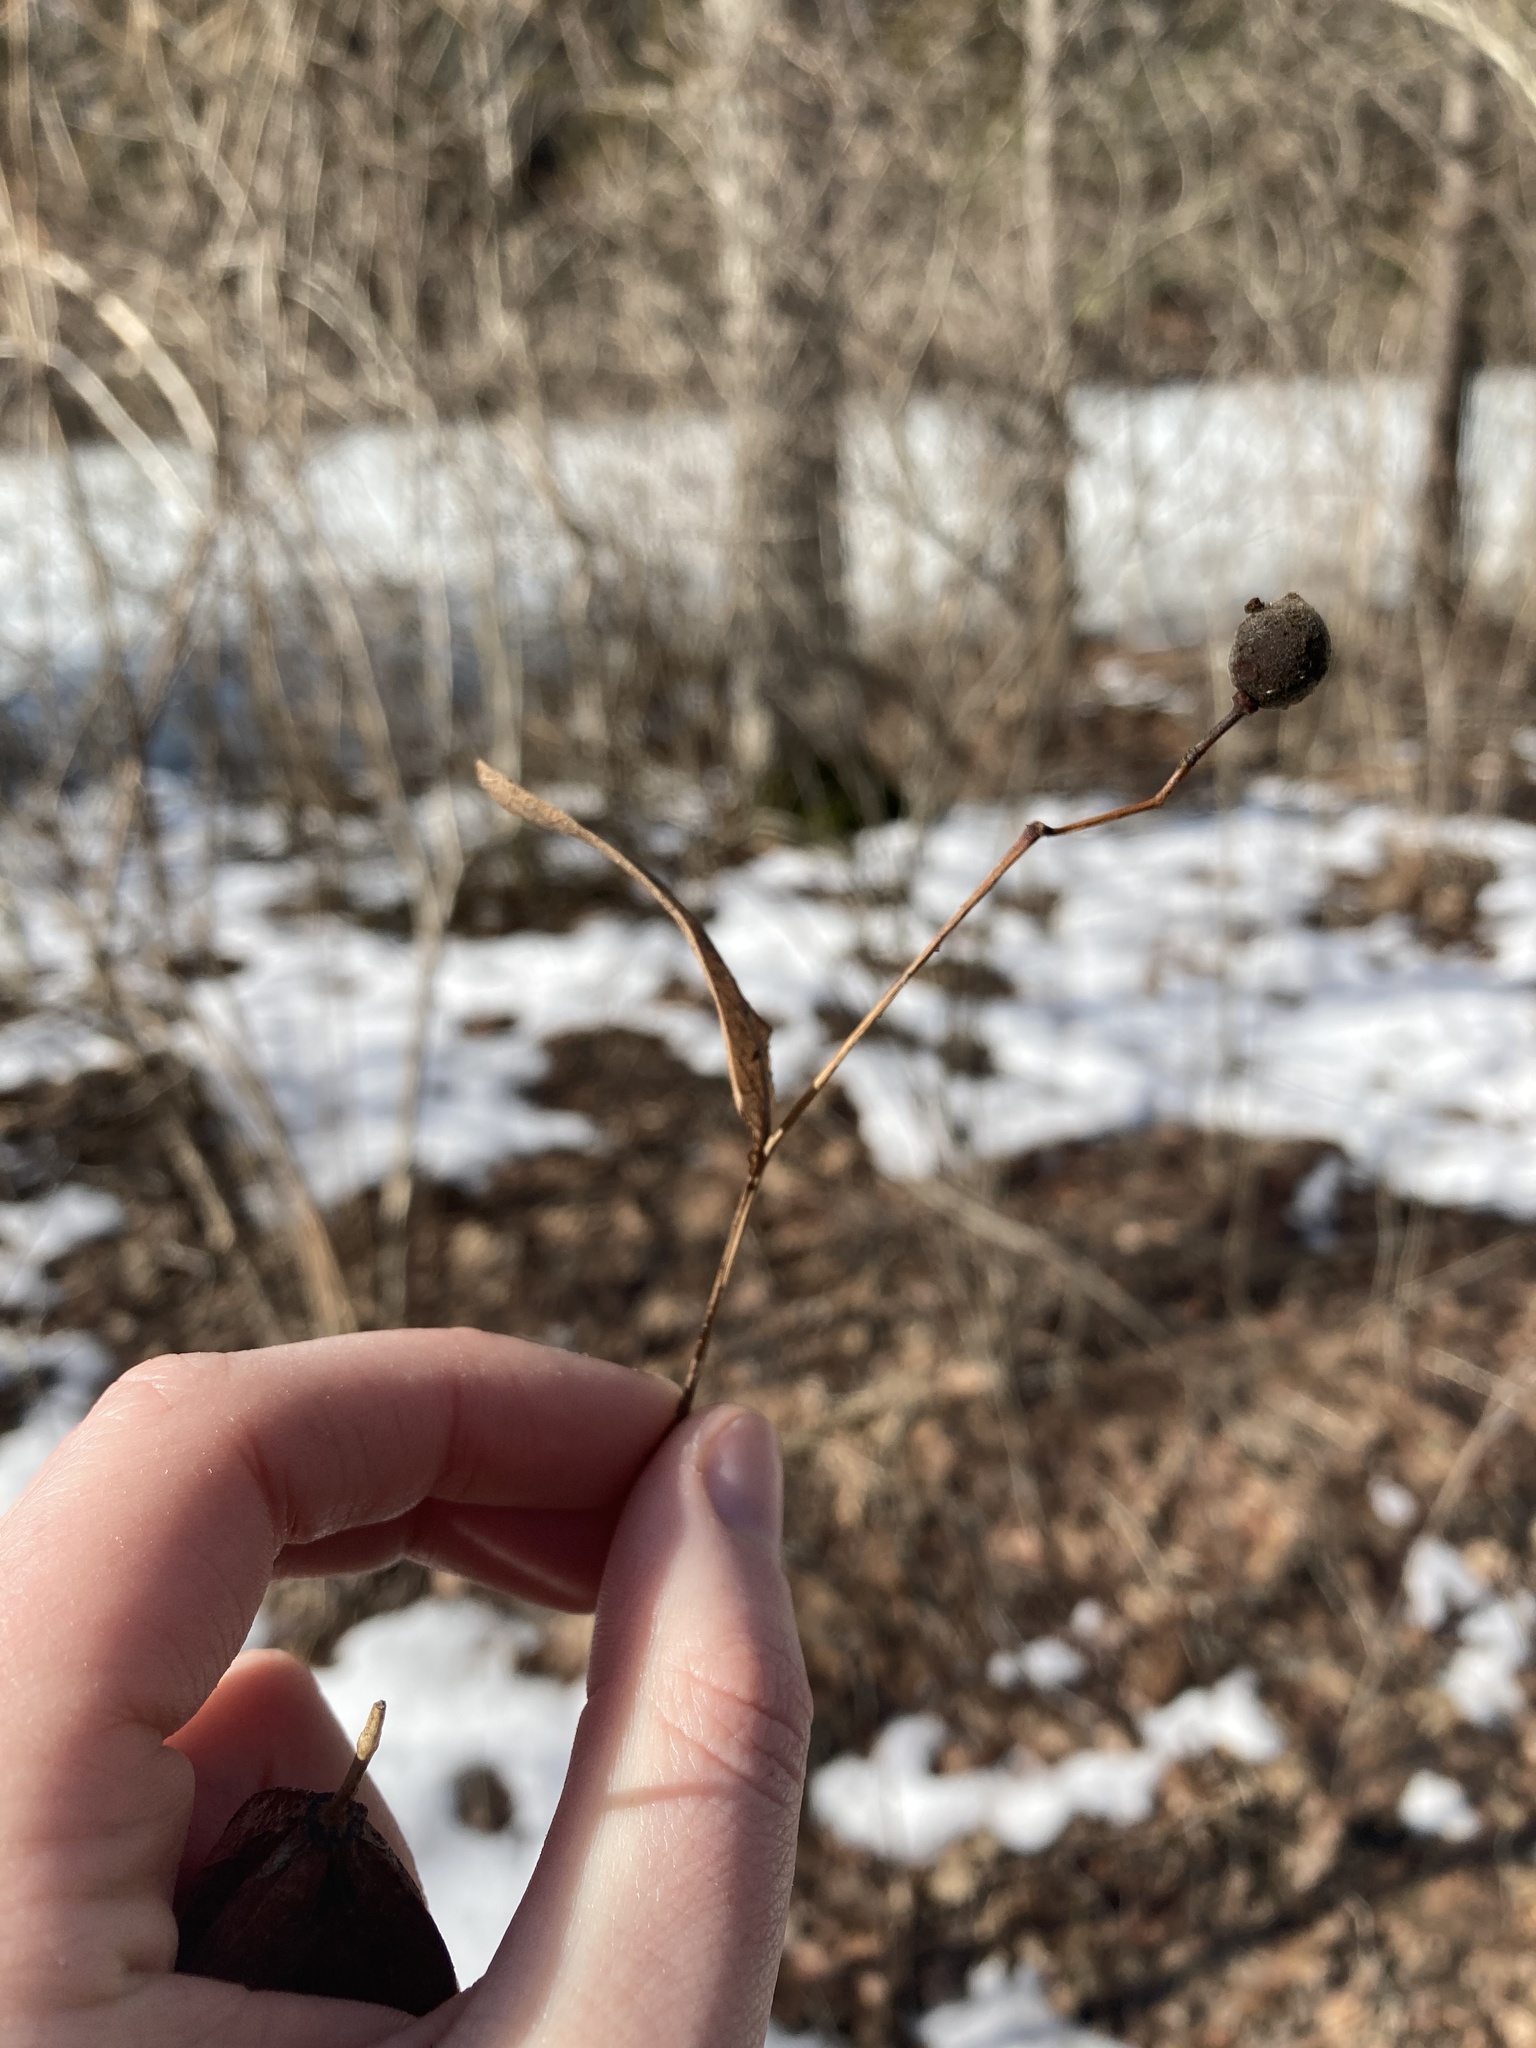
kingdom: Plantae
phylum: Tracheophyta
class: Magnoliopsida
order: Malvales
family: Malvaceae
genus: Tilia
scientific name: Tilia americana
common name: Basswood
